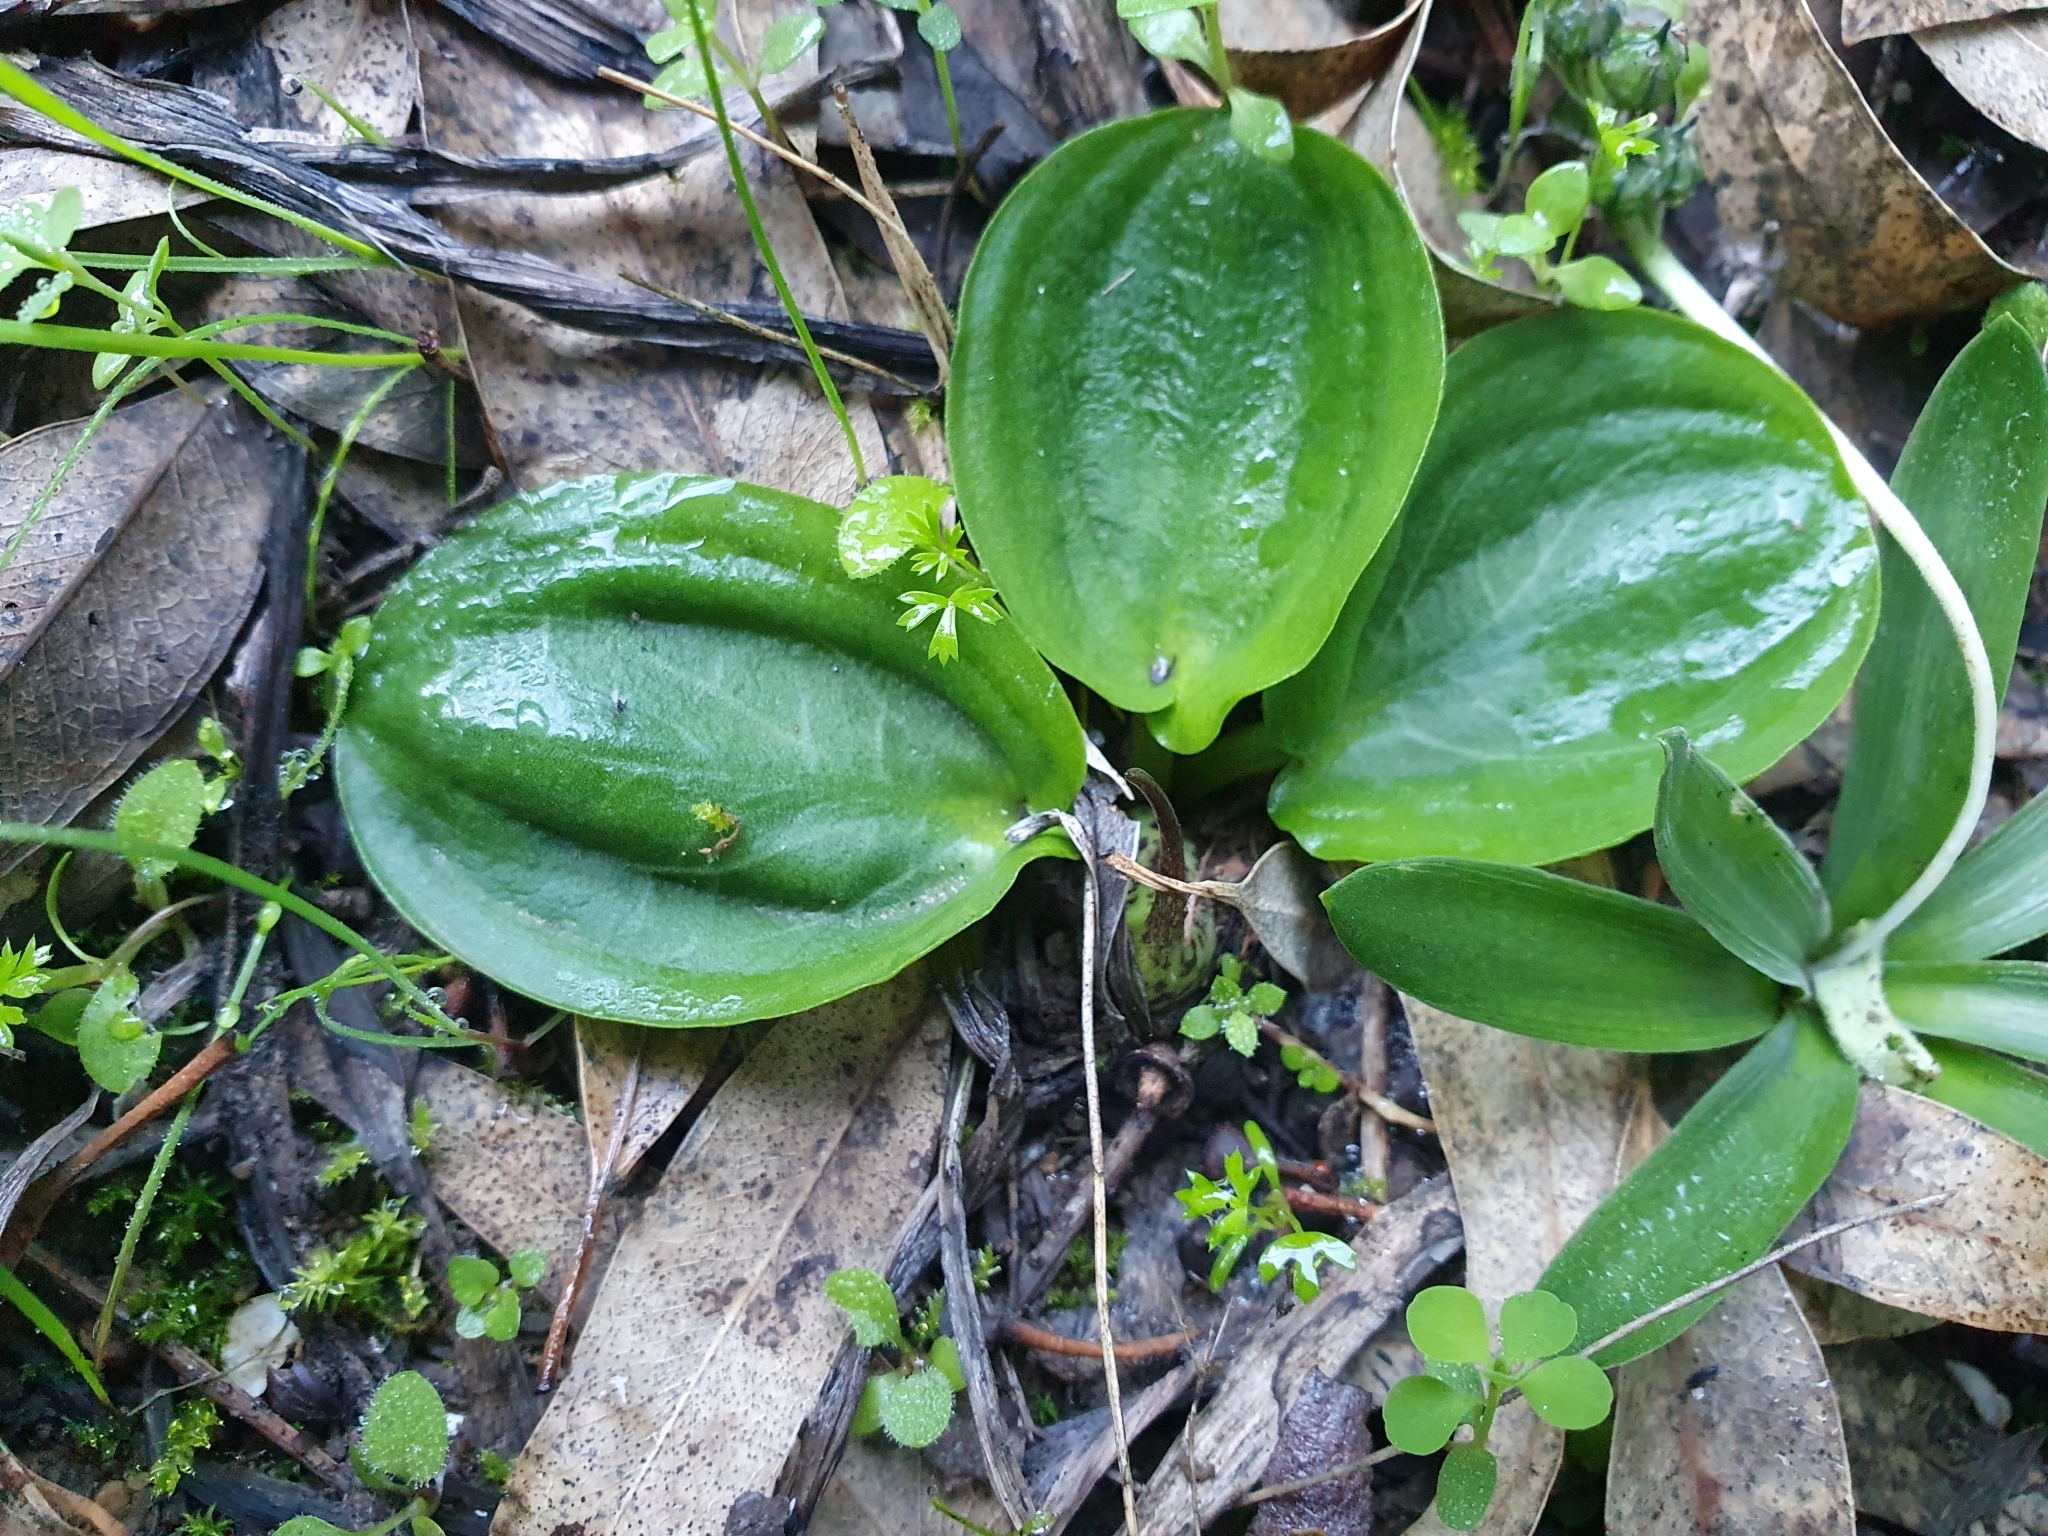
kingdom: Plantae
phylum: Tracheophyta
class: Liliopsida
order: Alismatales
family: Araceae
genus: Ambrosina
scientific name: Ambrosina bassii
